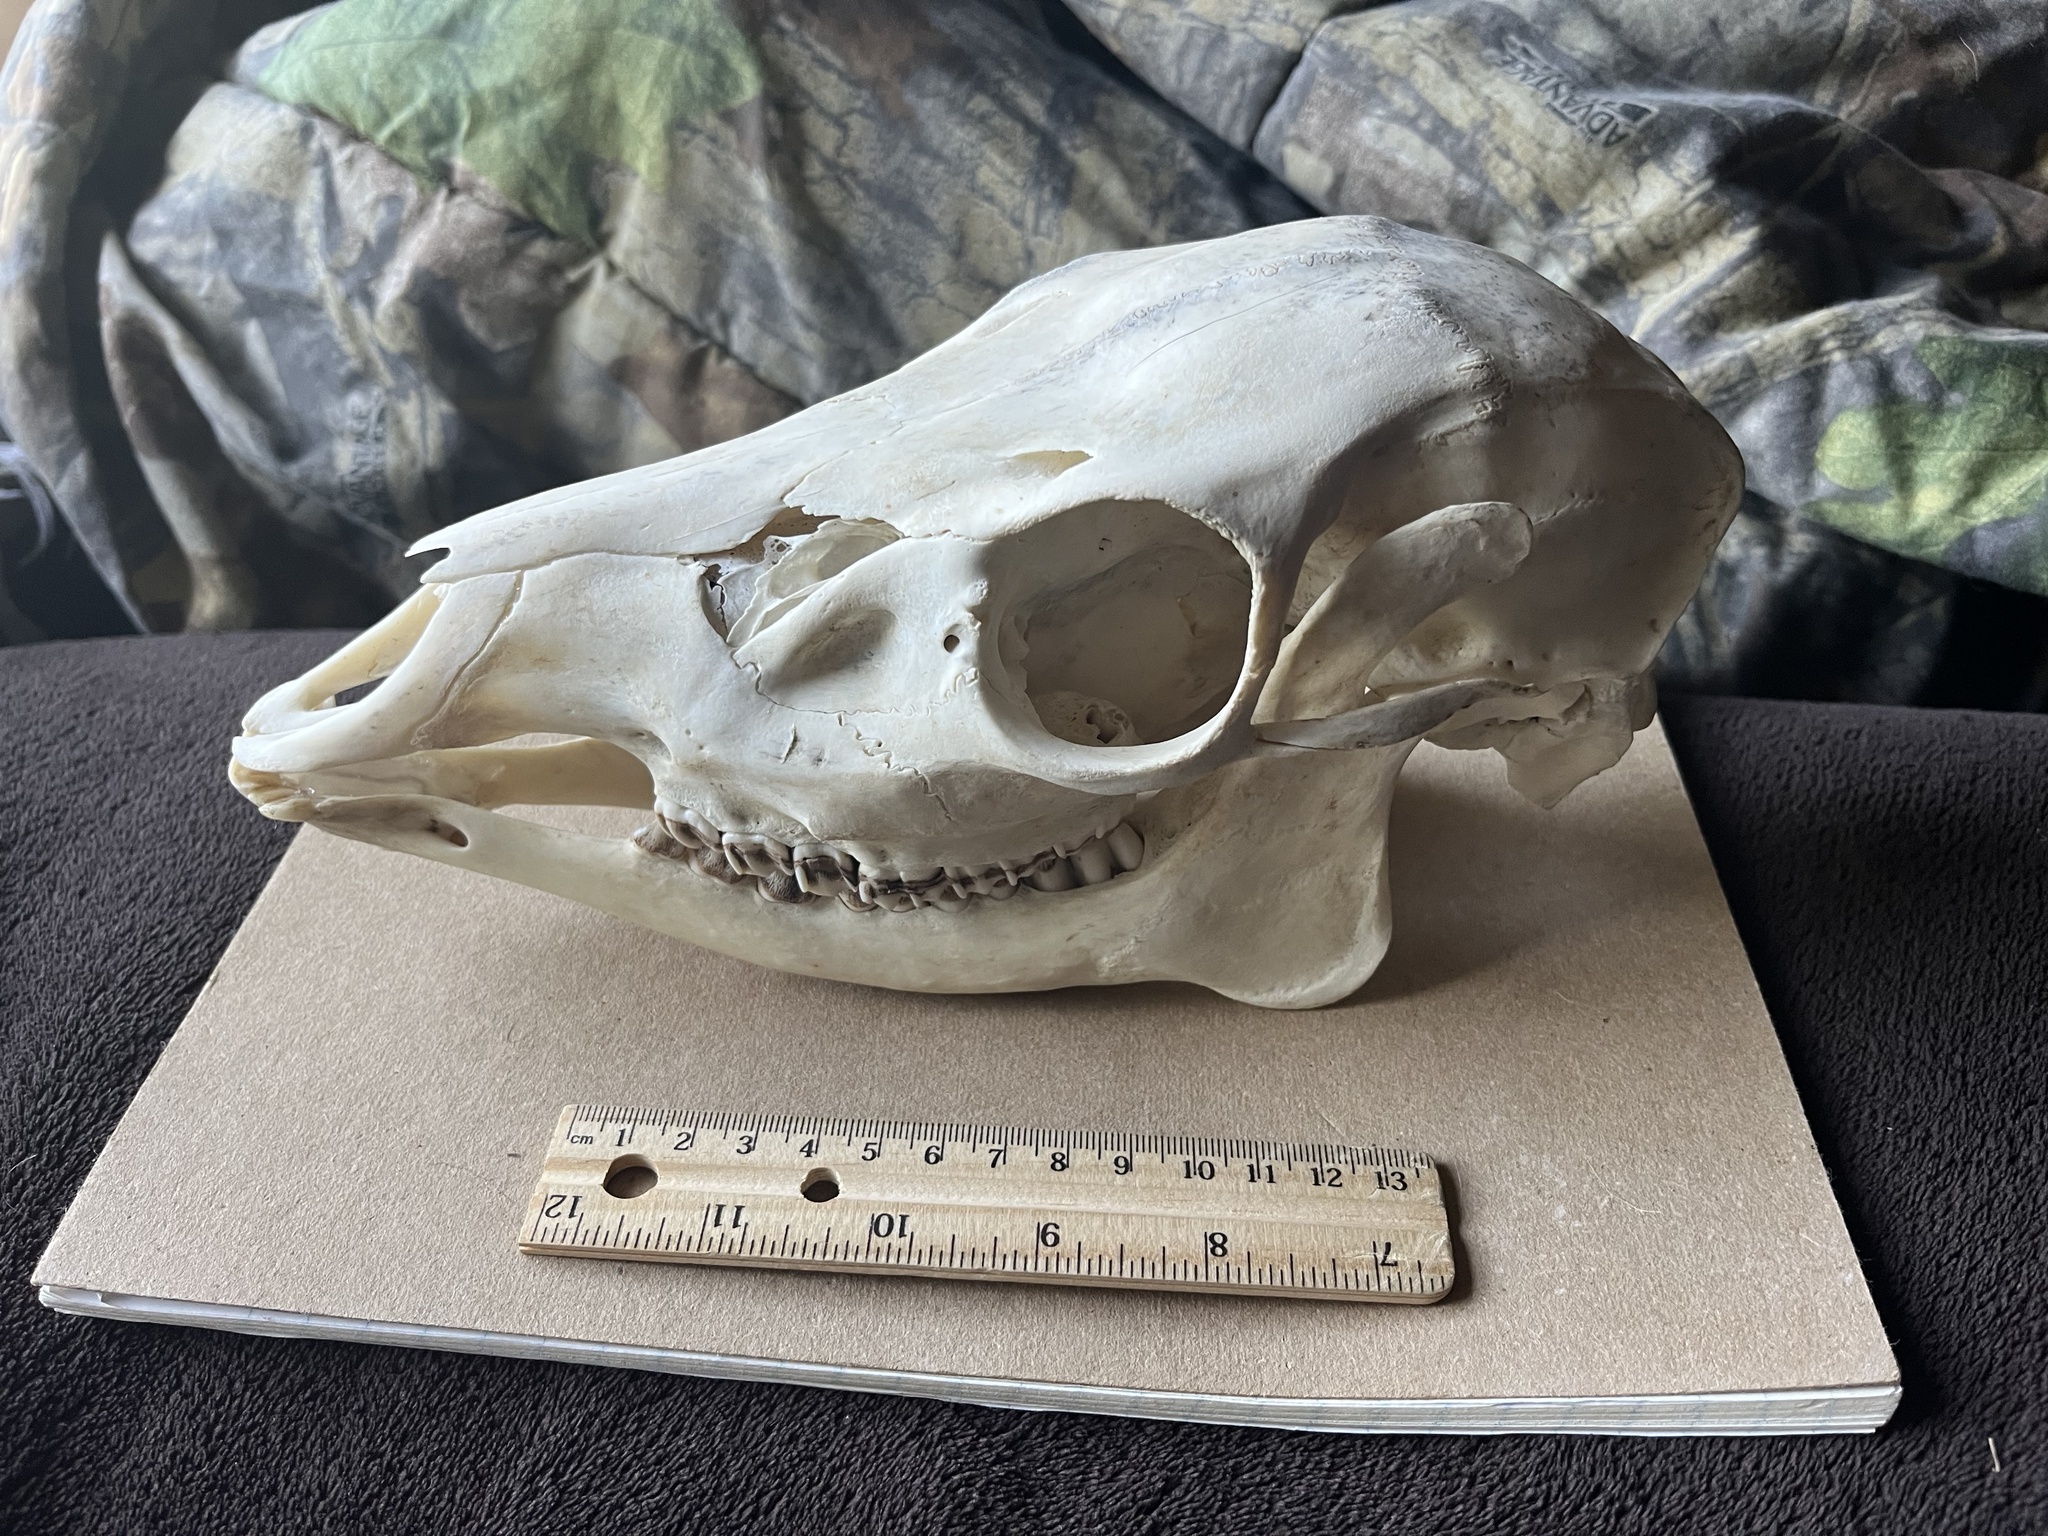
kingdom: Animalia
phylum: Chordata
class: Mammalia
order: Artiodactyla
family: Cervidae
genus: Axis
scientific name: Axis axis
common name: Chital
